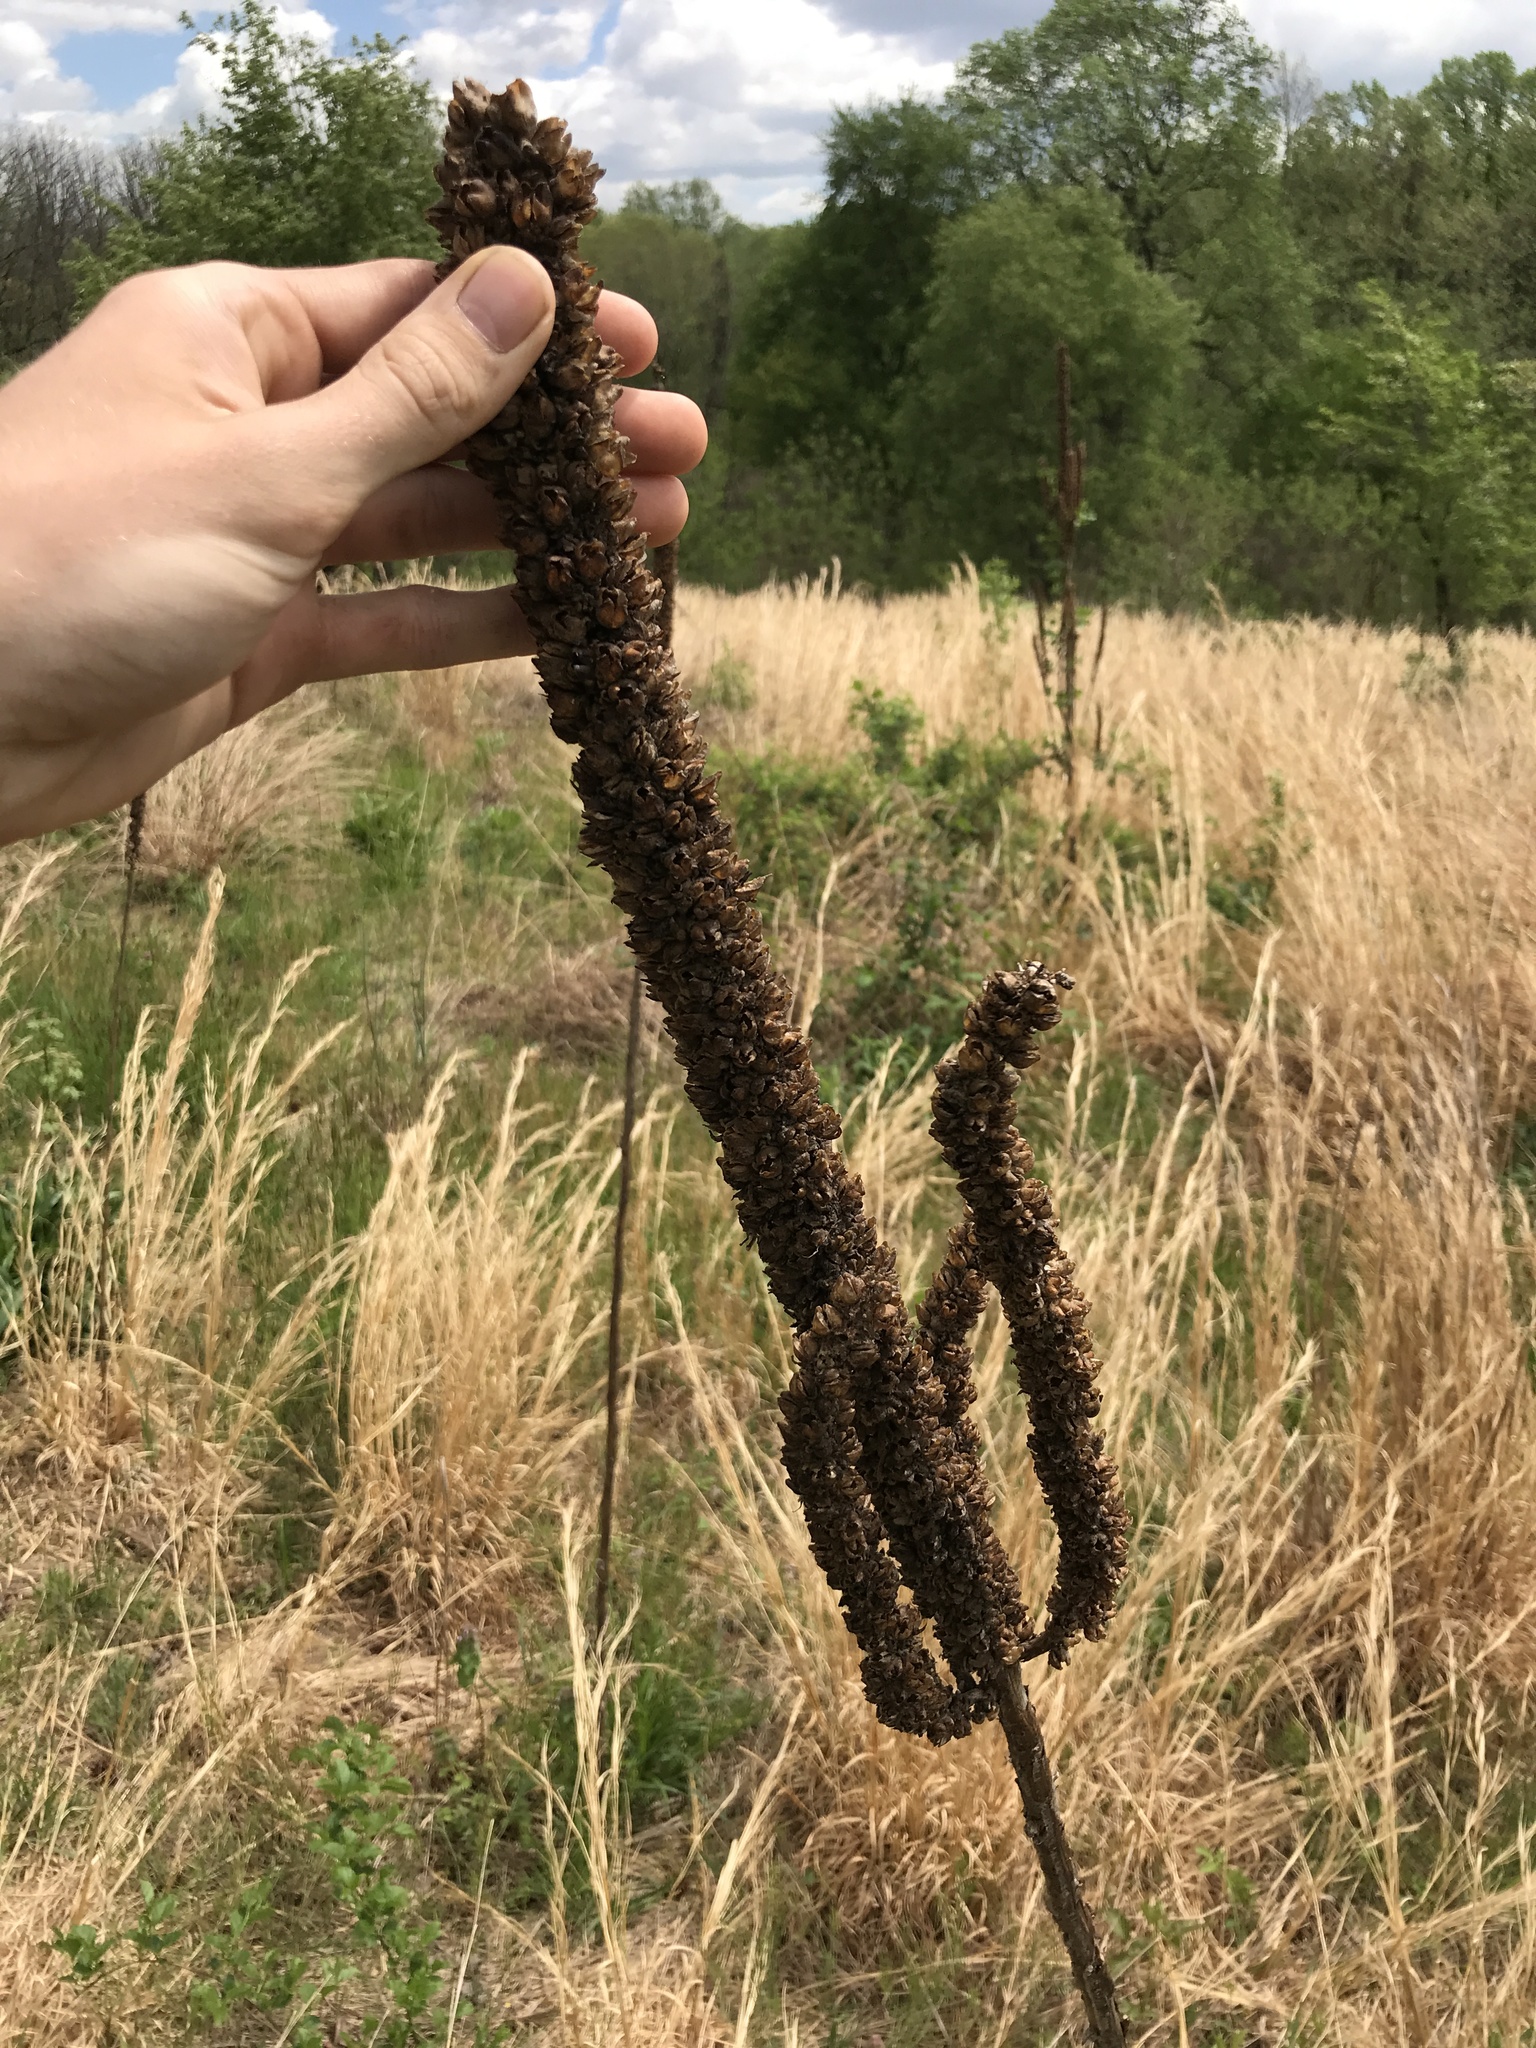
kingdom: Plantae
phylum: Tracheophyta
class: Magnoliopsida
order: Lamiales
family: Scrophulariaceae
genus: Verbascum
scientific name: Verbascum thapsus
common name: Common mullein
